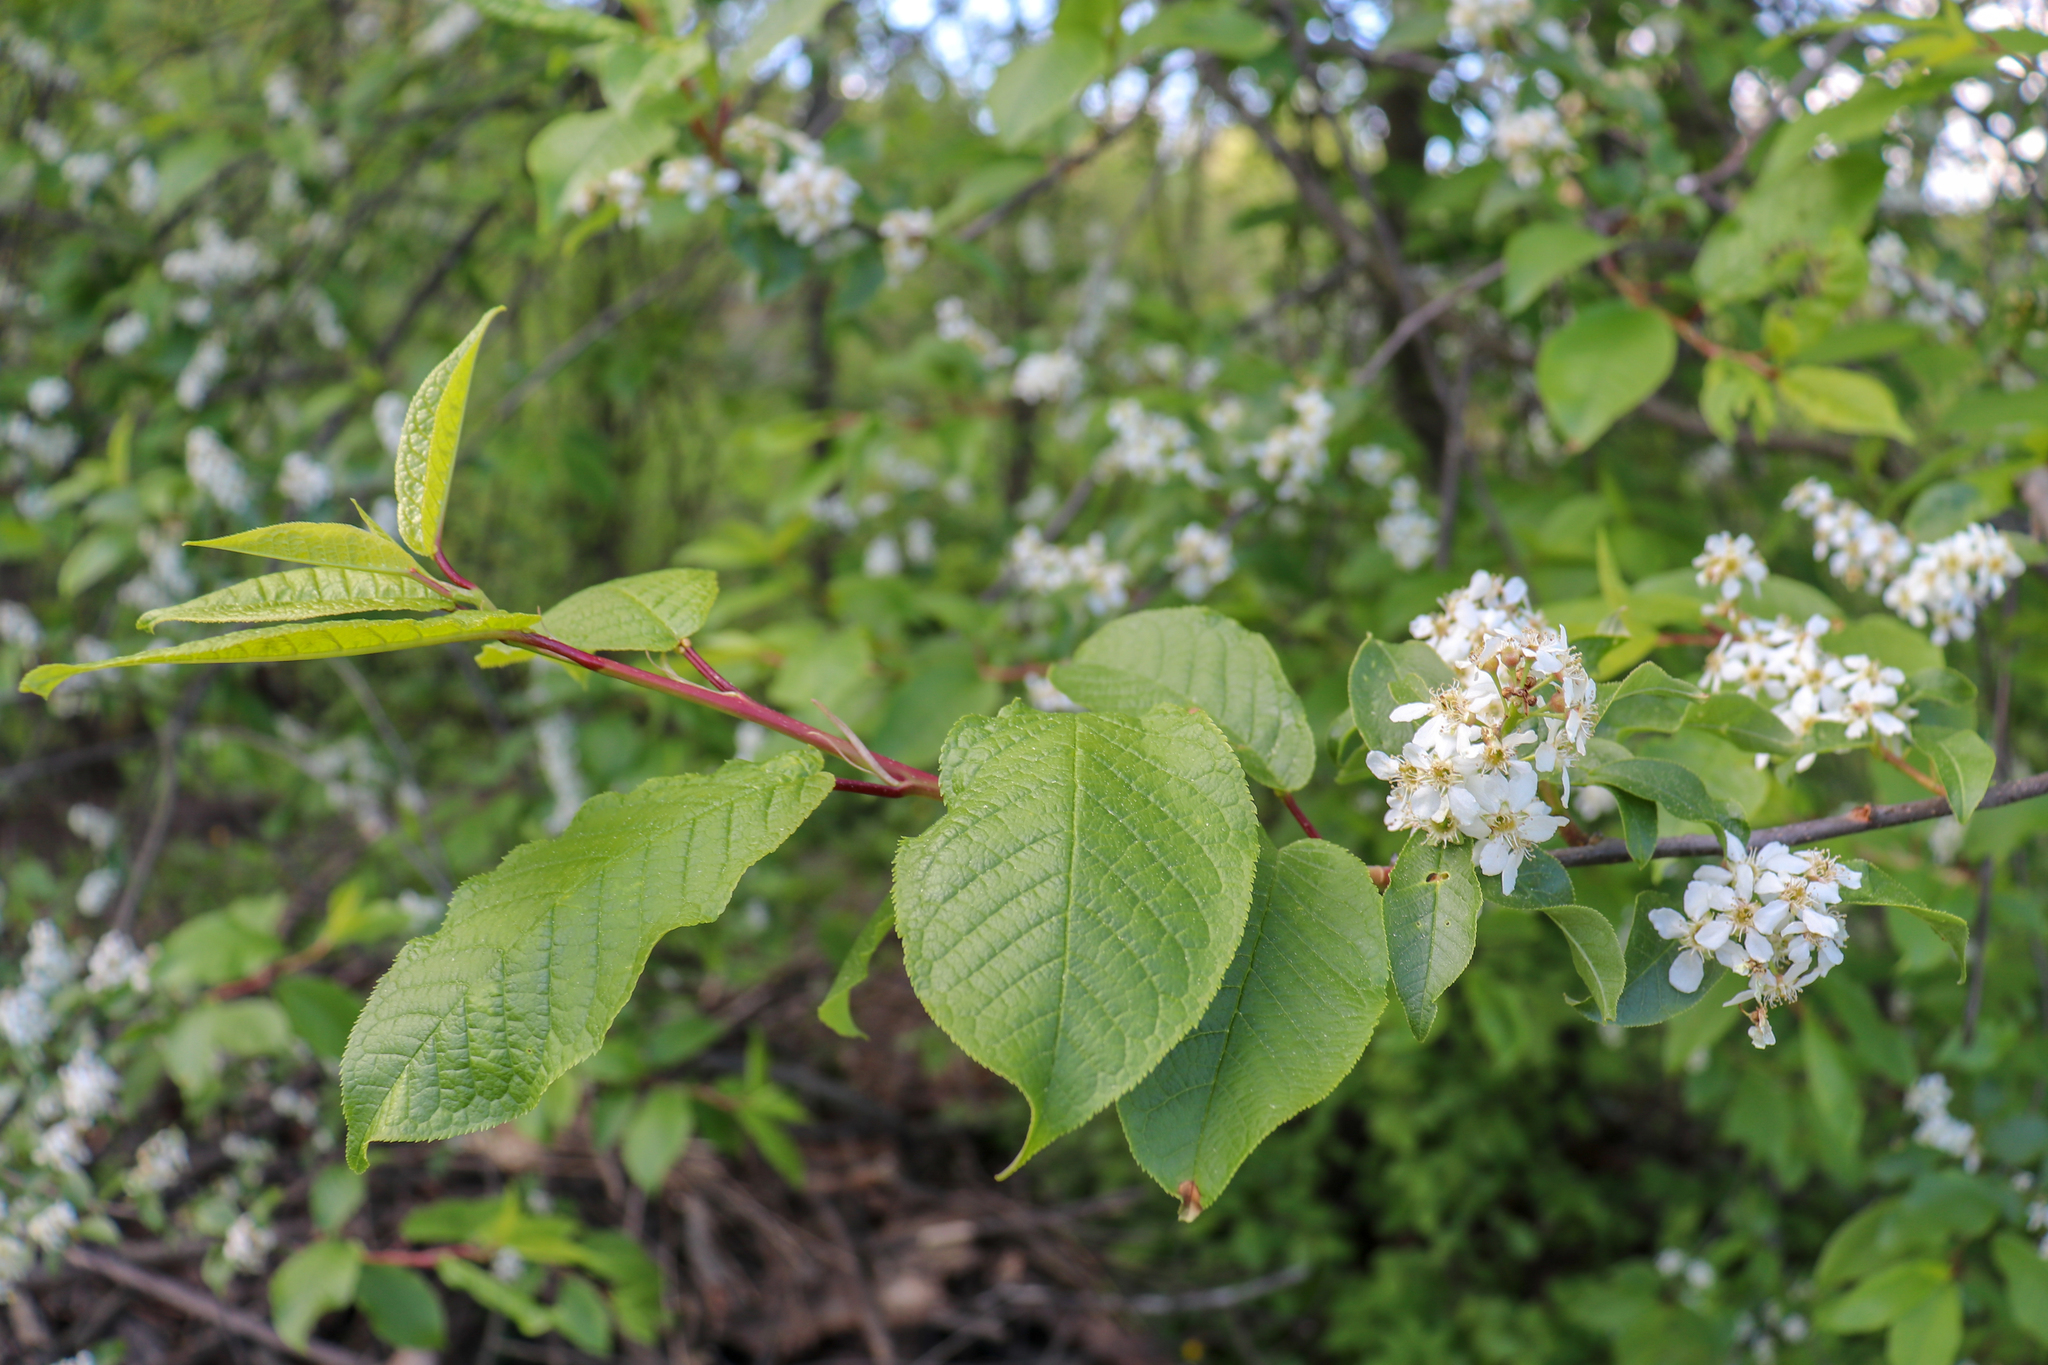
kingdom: Plantae
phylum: Tracheophyta
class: Magnoliopsida
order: Rosales
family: Rosaceae
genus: Prunus
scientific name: Prunus padus
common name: Bird cherry
